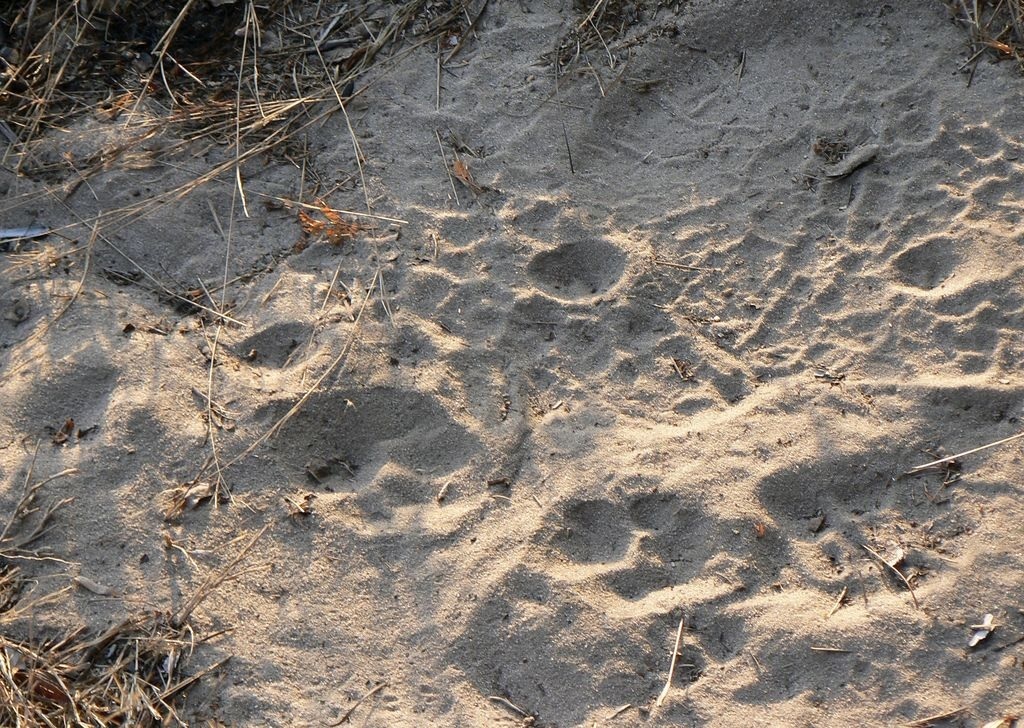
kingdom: Animalia
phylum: Chordata
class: Mammalia
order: Carnivora
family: Felidae
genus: Panthera
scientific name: Panthera pardus
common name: Leopard
